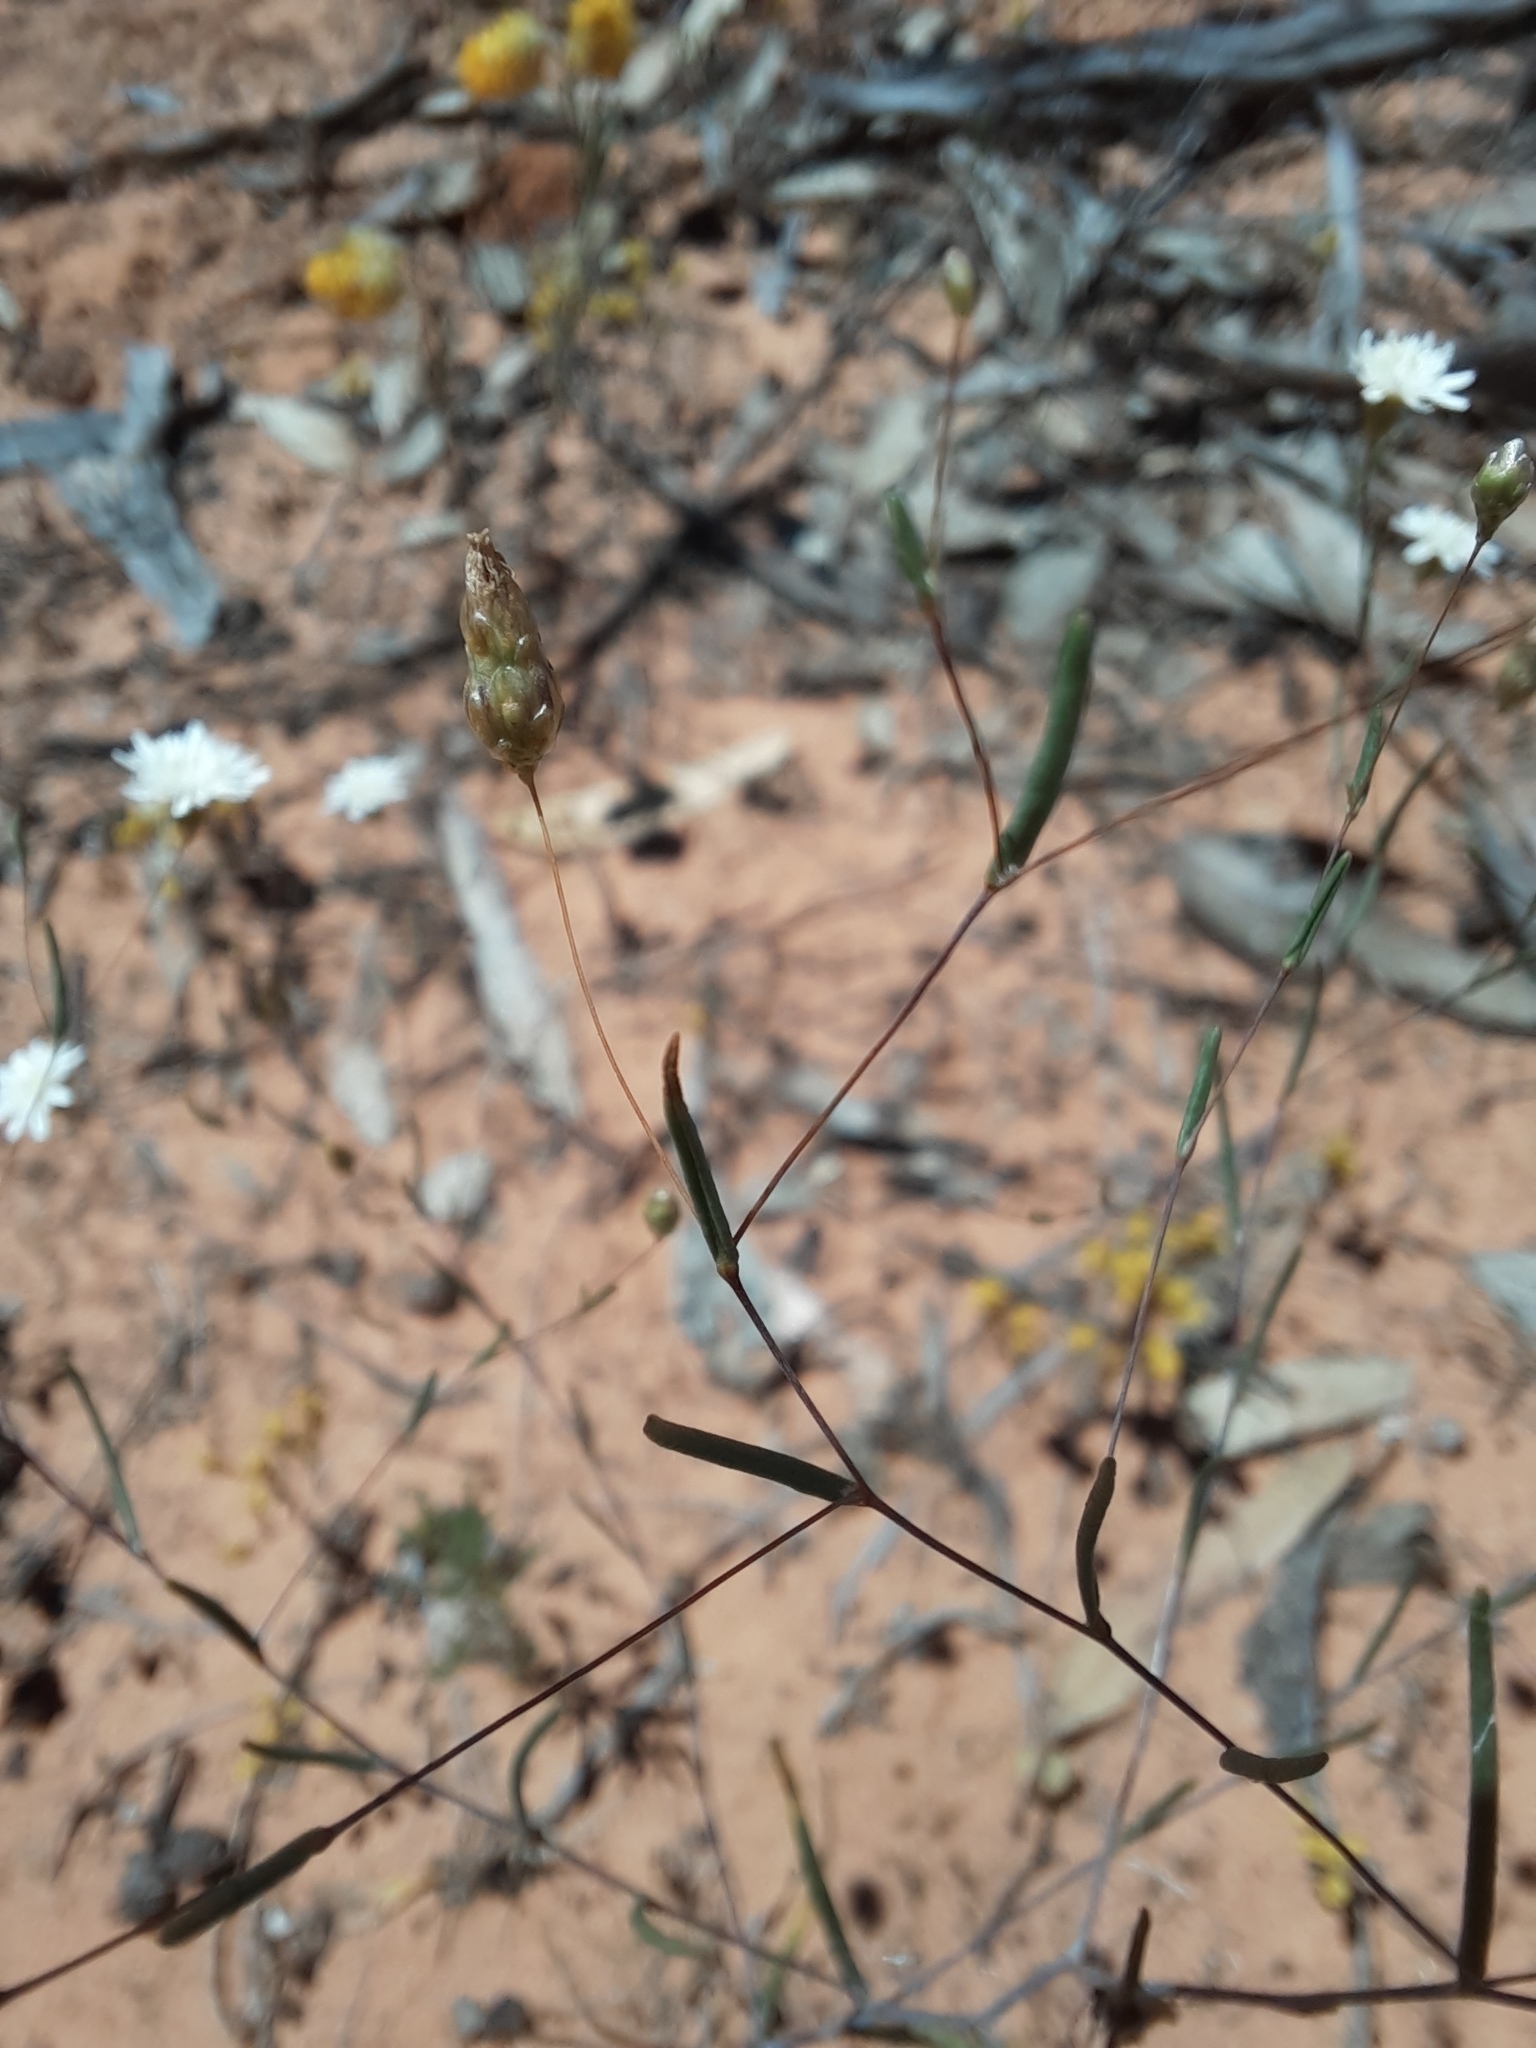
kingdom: Plantae
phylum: Tracheophyta
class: Magnoliopsida
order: Asterales
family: Asteraceae
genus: Siemssenia
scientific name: Siemssenia capillaris
